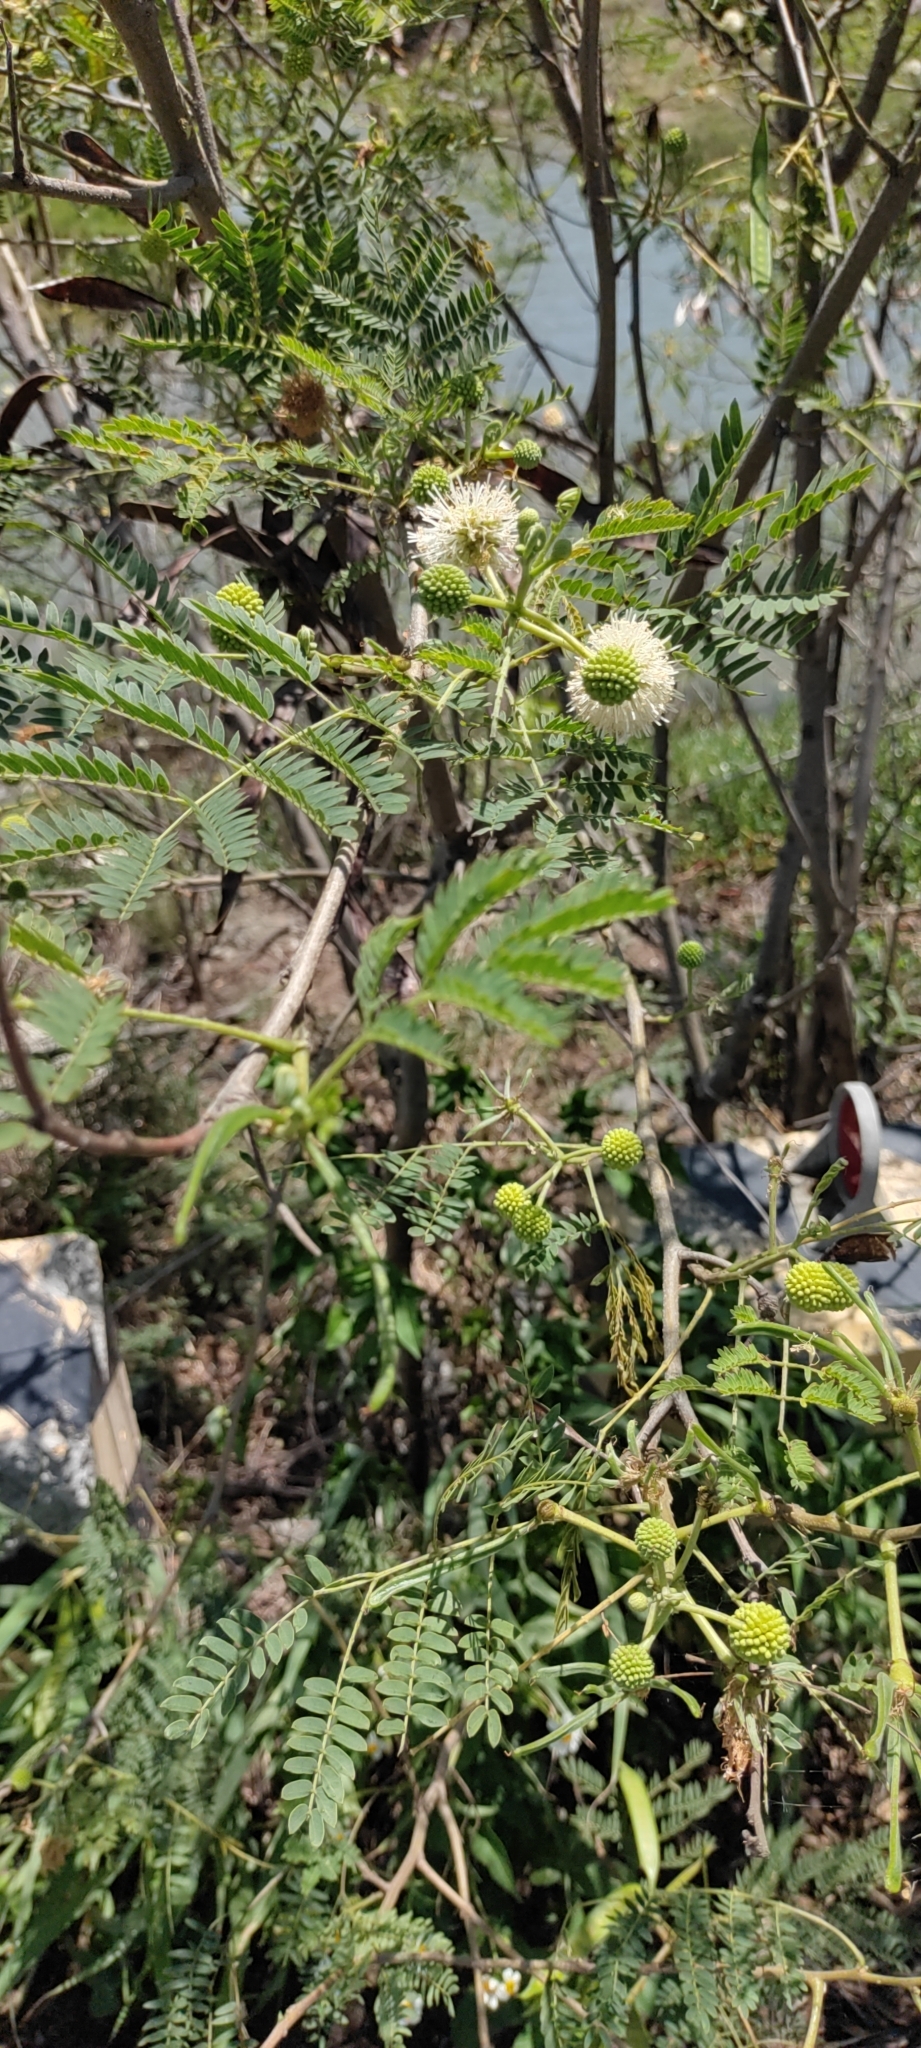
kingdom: Plantae
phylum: Tracheophyta
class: Magnoliopsida
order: Fabales
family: Fabaceae
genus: Leucaena
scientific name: Leucaena leucocephala
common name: White leadtree
